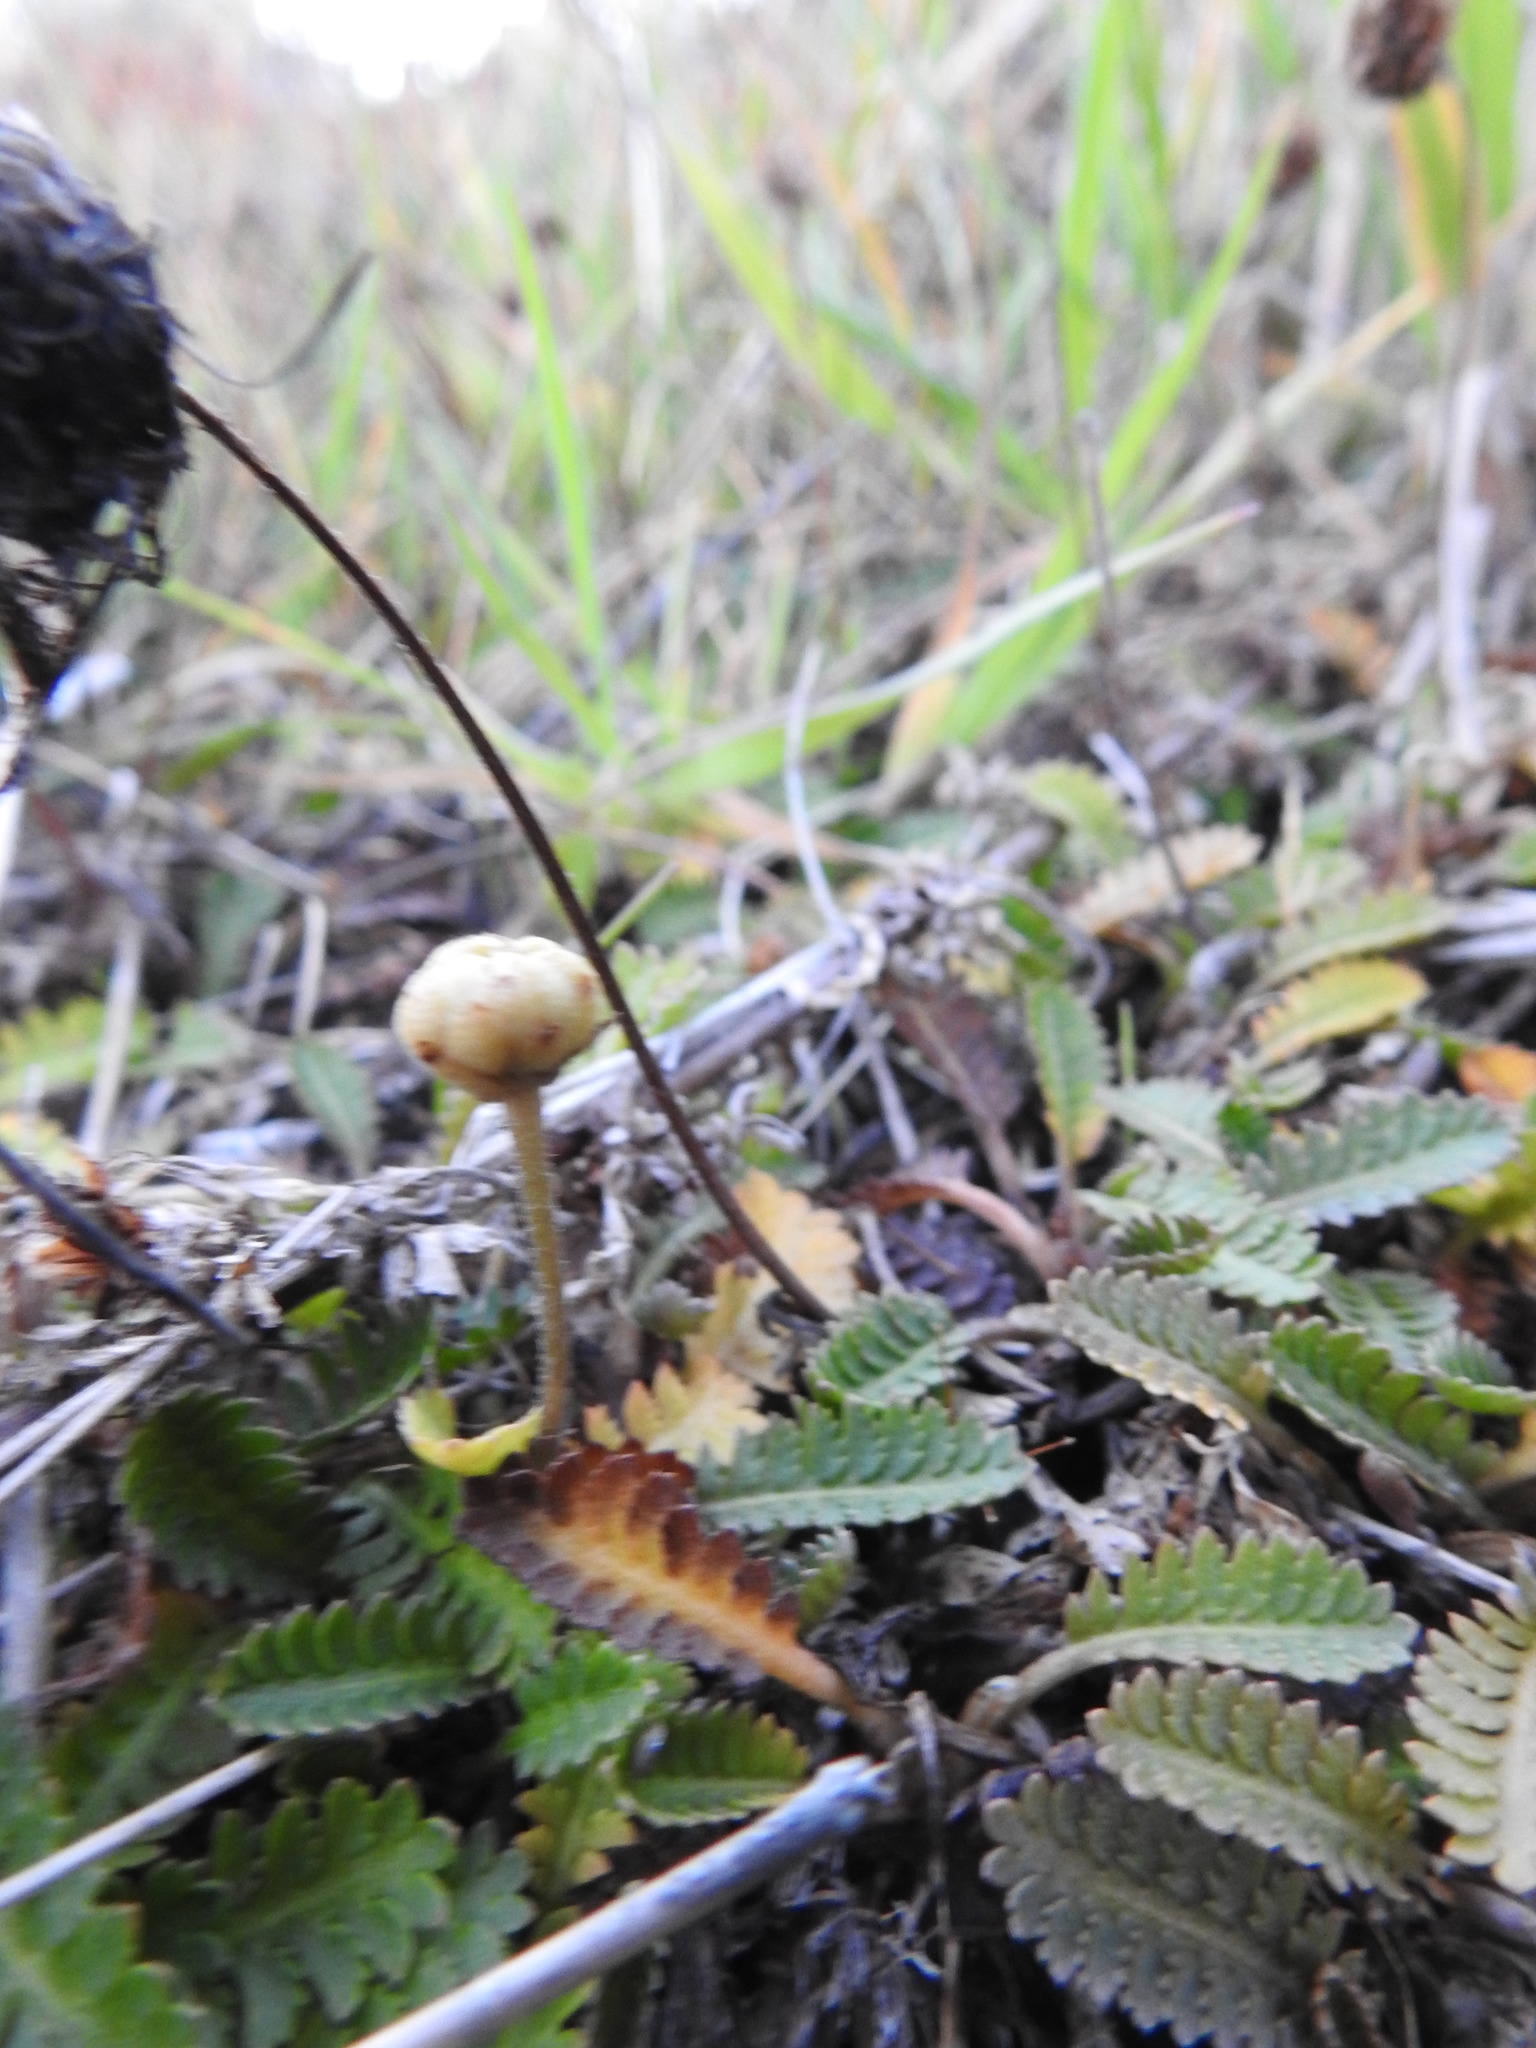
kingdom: Plantae
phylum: Tracheophyta
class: Magnoliopsida
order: Asterales
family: Asteraceae
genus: Leptinella
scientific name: Leptinella scariosa
